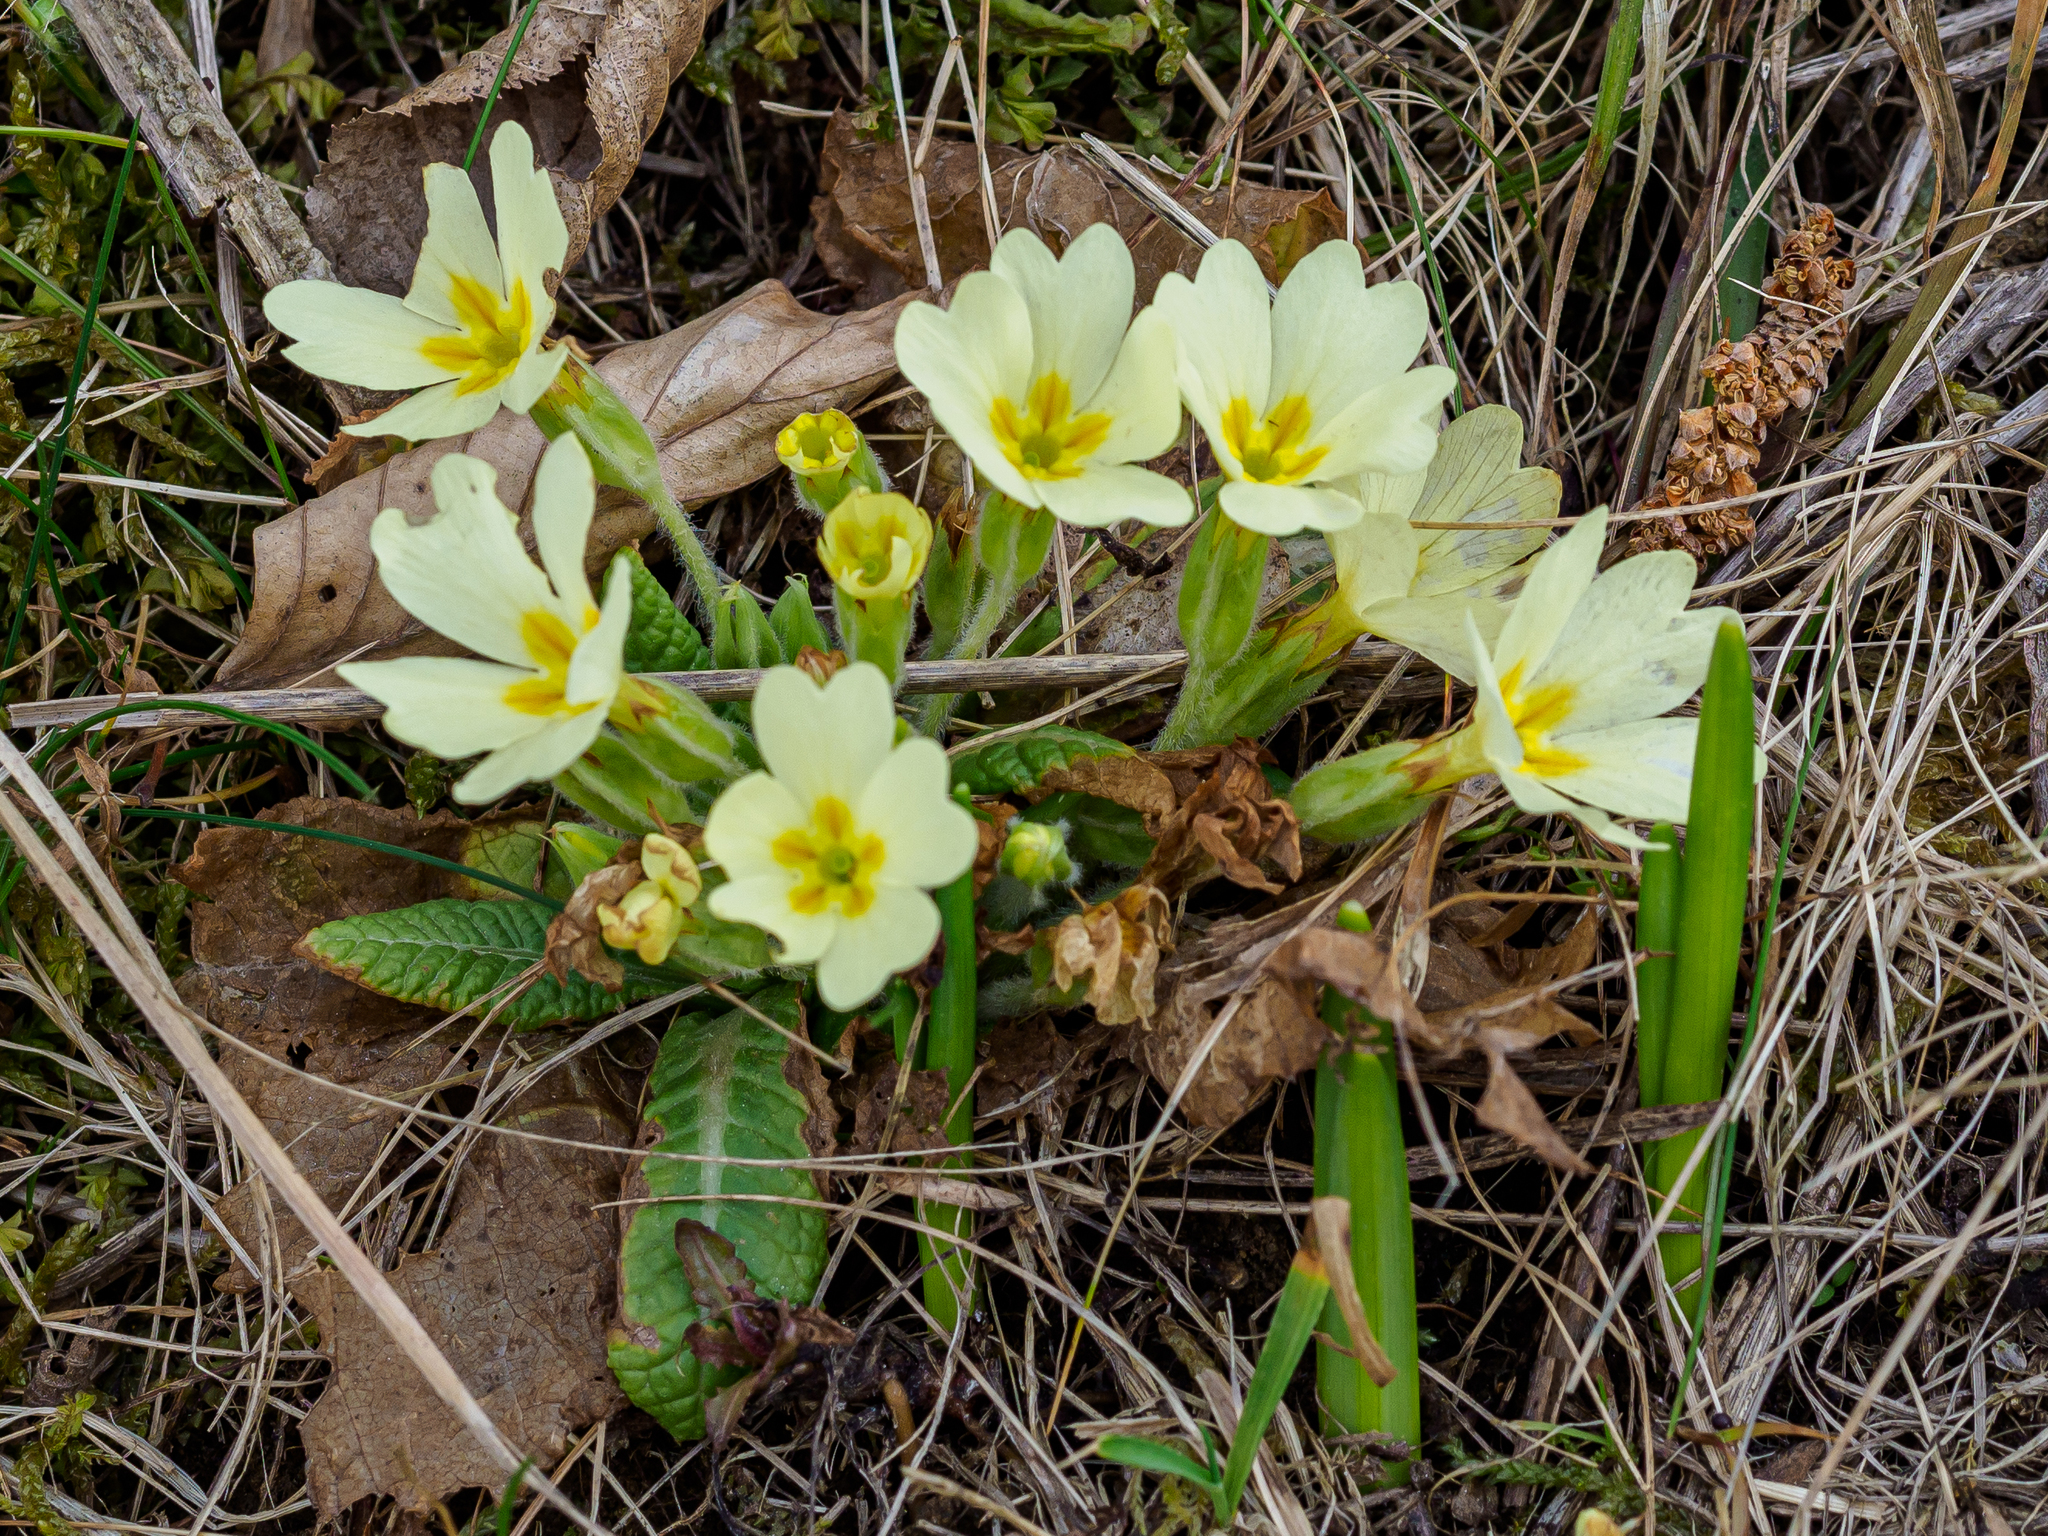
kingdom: Plantae
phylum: Tracheophyta
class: Magnoliopsida
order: Ericales
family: Primulaceae
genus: Primula
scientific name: Primula vulgaris
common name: Primrose
